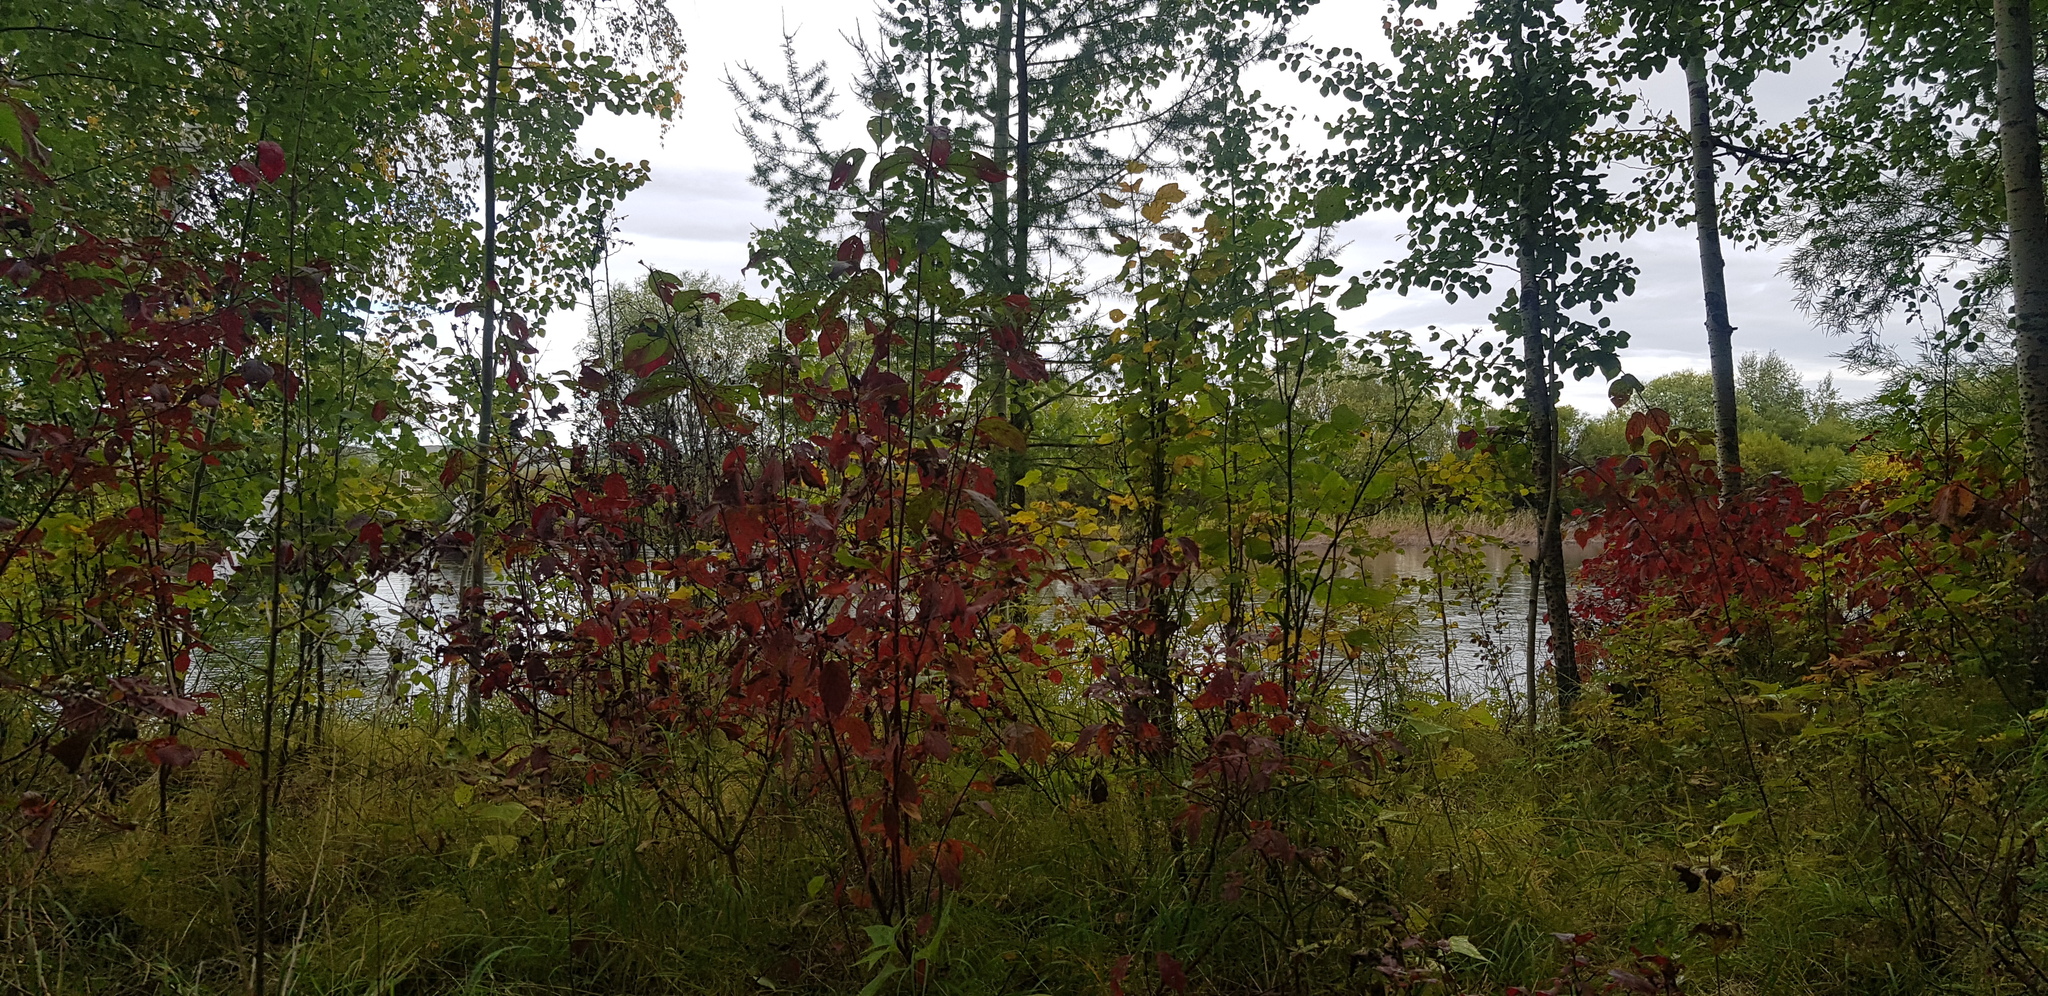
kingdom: Plantae
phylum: Tracheophyta
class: Magnoliopsida
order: Malpighiales
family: Salicaceae
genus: Populus
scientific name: Populus tremula
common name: European aspen
